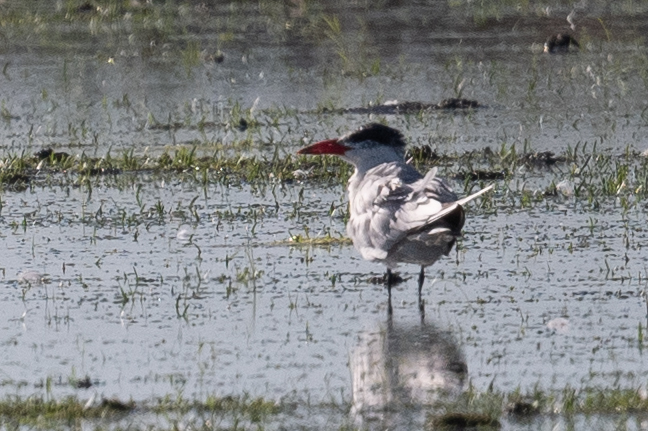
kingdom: Animalia
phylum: Chordata
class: Aves
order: Charadriiformes
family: Laridae
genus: Hydroprogne
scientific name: Hydroprogne caspia
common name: Caspian tern
